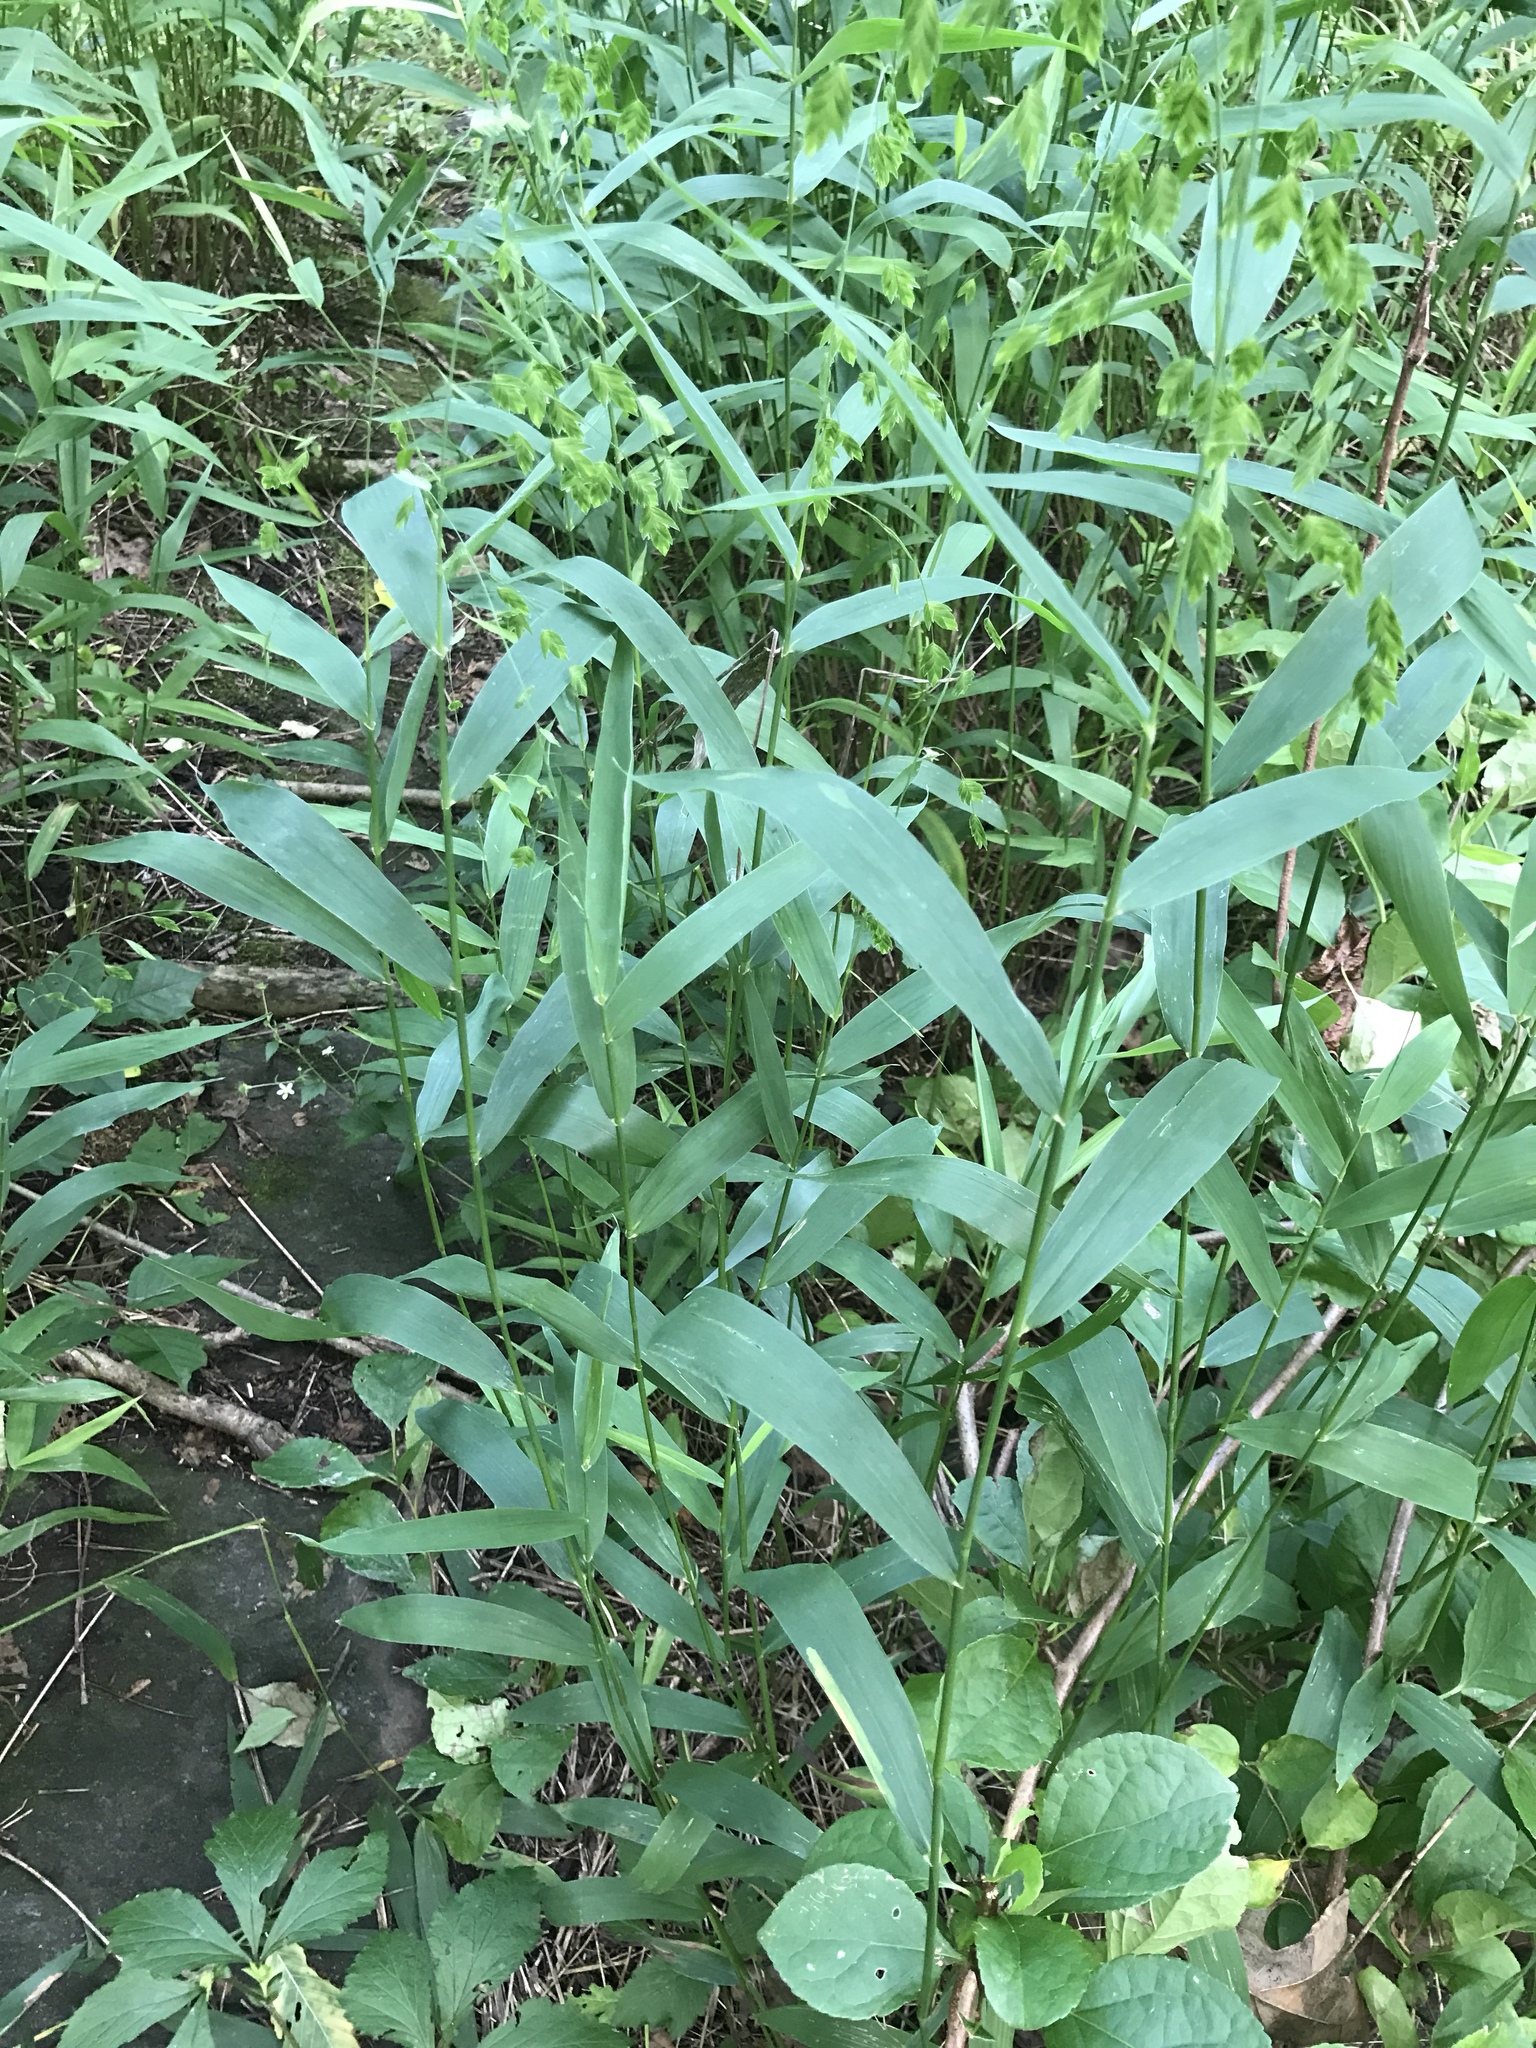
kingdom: Plantae
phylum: Tracheophyta
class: Liliopsida
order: Poales
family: Poaceae
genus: Chasmanthium
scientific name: Chasmanthium latifolium
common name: Broad-leaved chasmanthium
